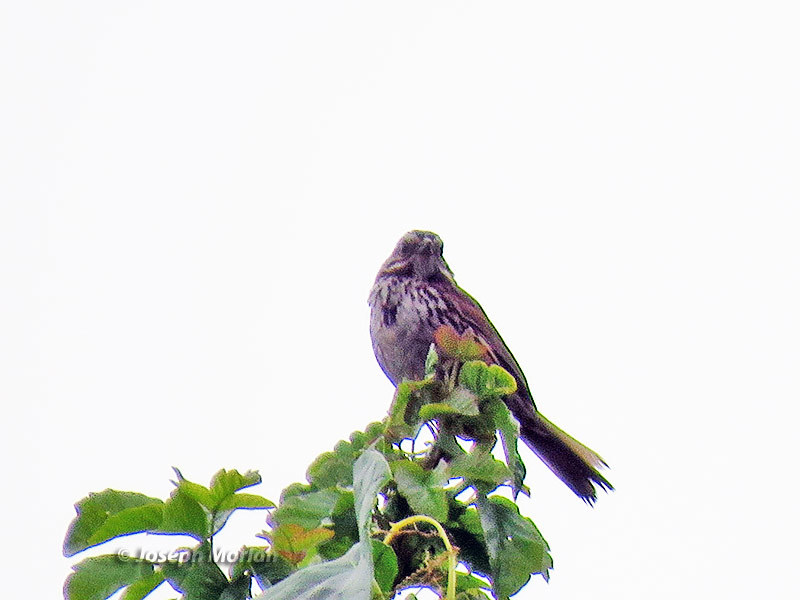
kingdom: Animalia
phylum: Chordata
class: Aves
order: Passeriformes
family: Passerellidae
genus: Melospiza
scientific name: Melospiza melodia
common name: Song sparrow
